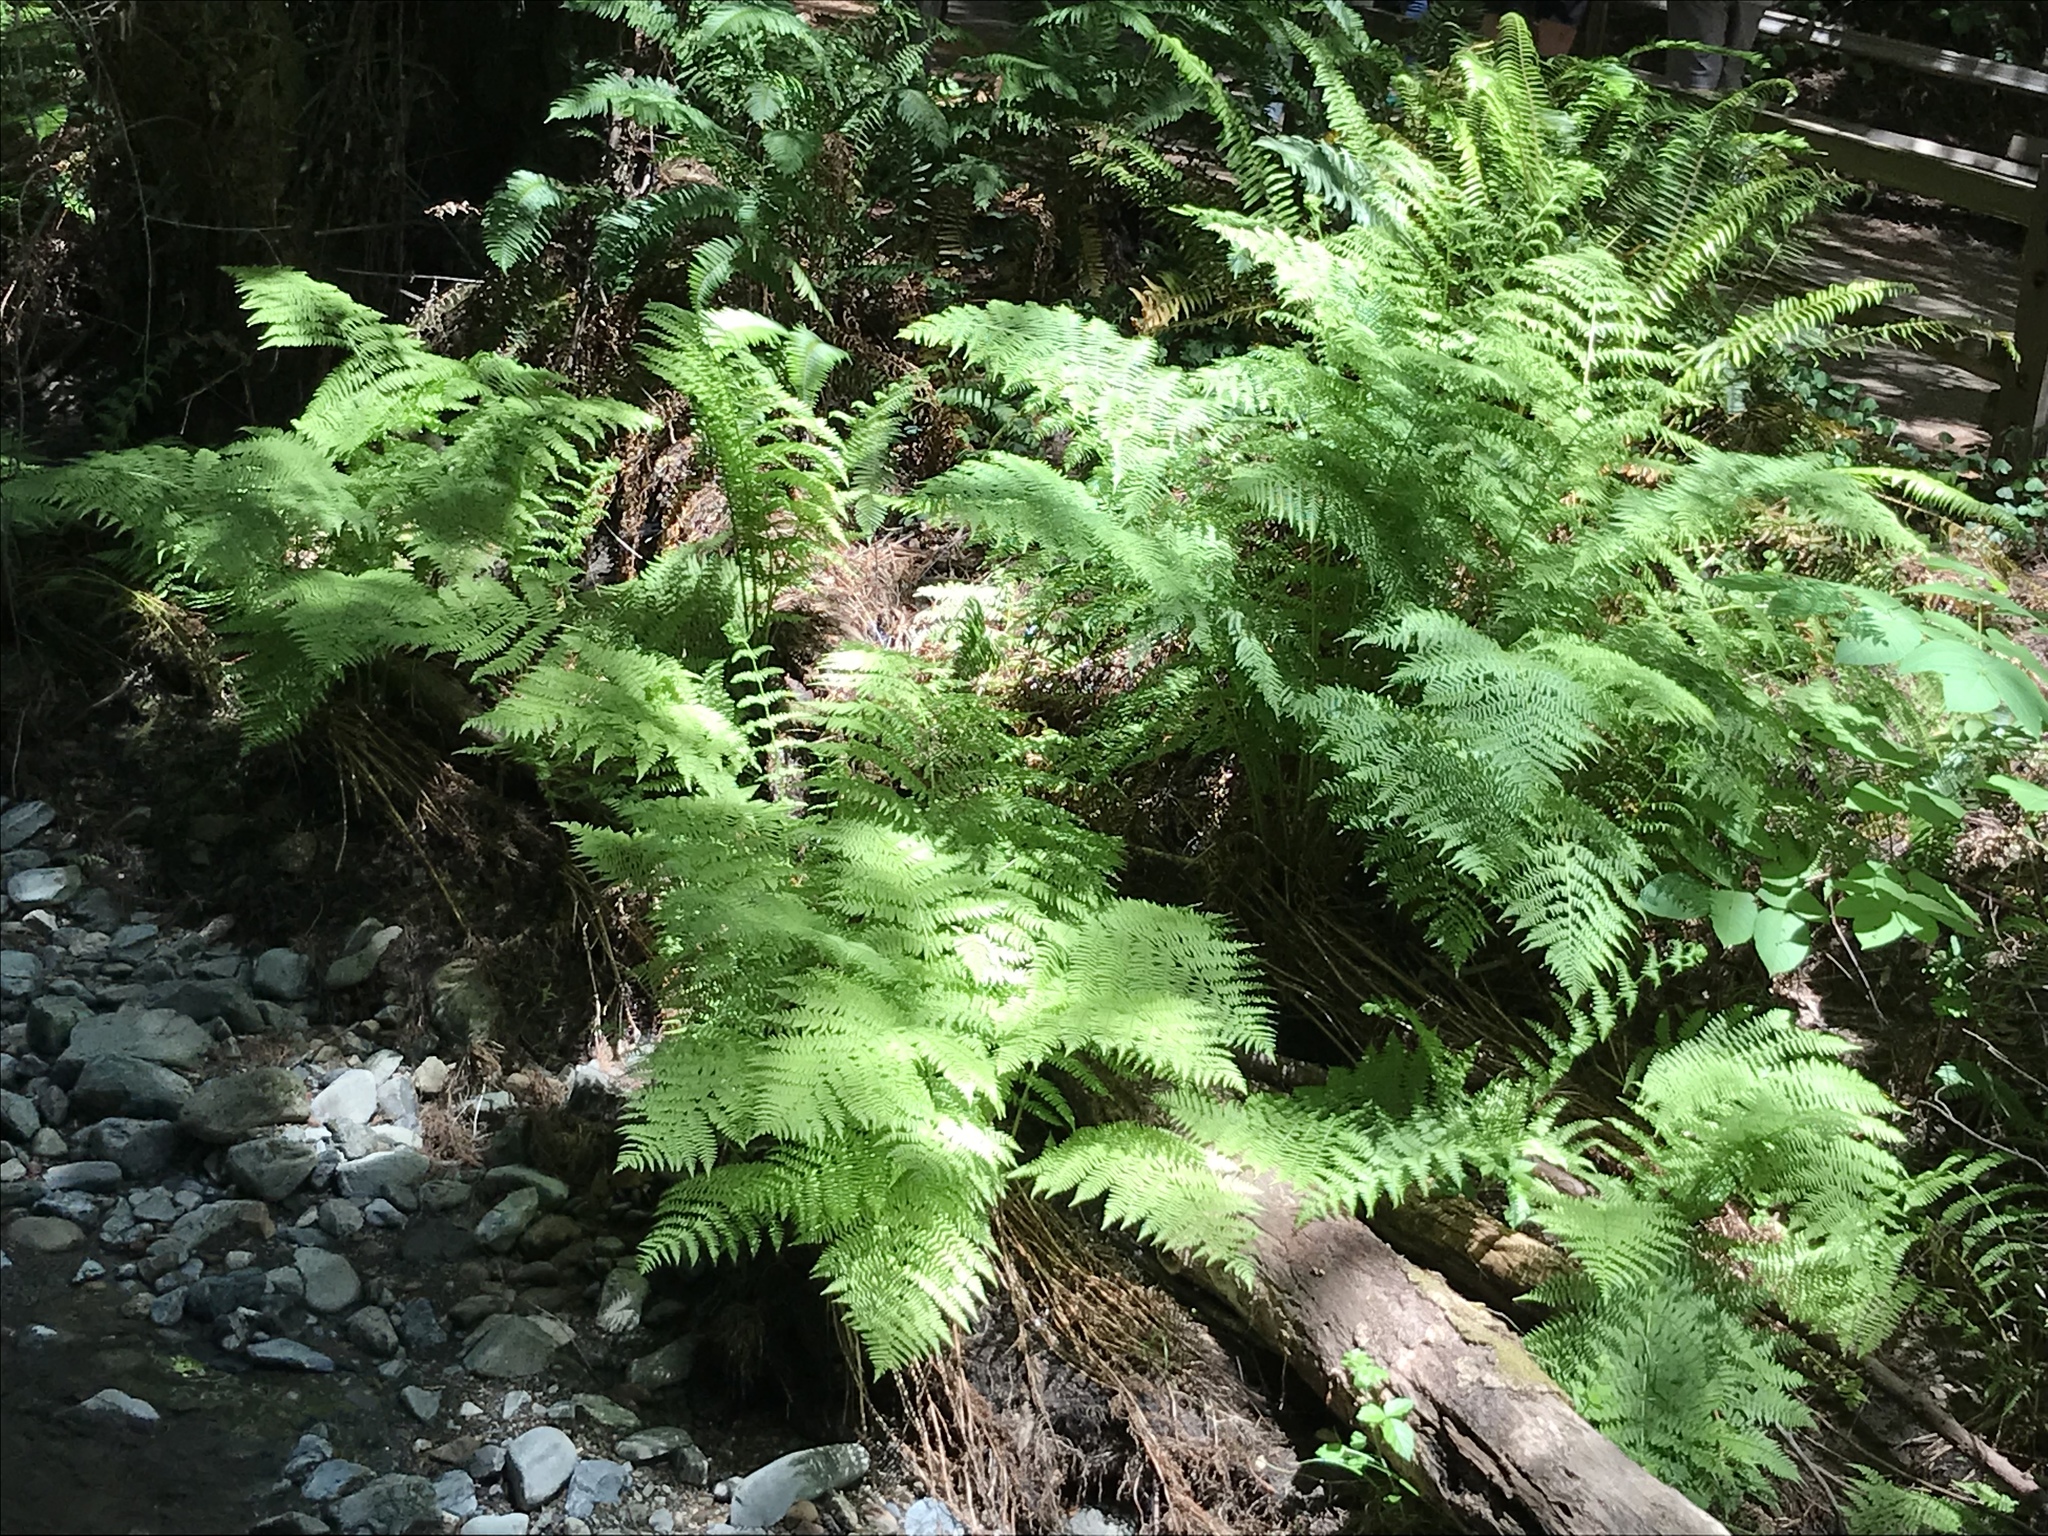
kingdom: Plantae
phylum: Tracheophyta
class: Polypodiopsida
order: Polypodiales
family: Athyriaceae
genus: Athyrium
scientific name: Athyrium filix-femina
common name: Lady fern
